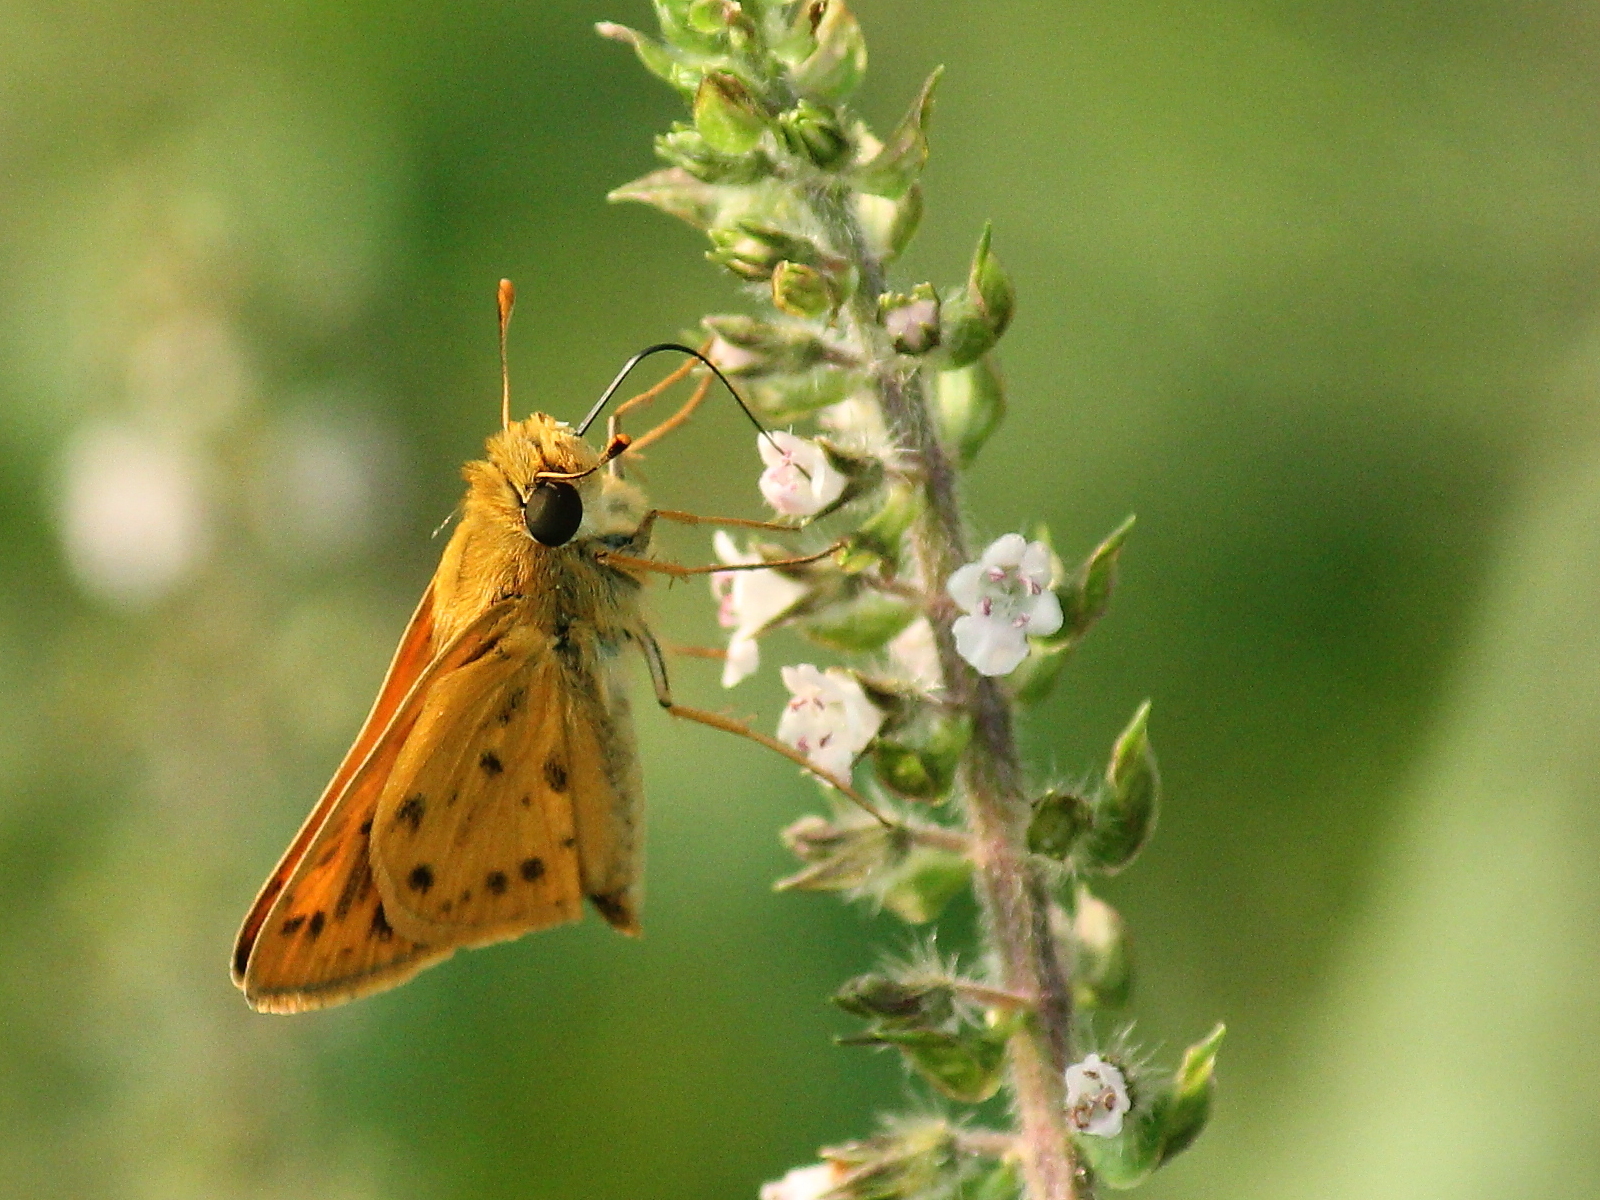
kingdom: Animalia
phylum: Arthropoda
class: Insecta
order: Lepidoptera
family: Hesperiidae
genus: Hylephila
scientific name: Hylephila phyleus
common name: Fiery skipper
